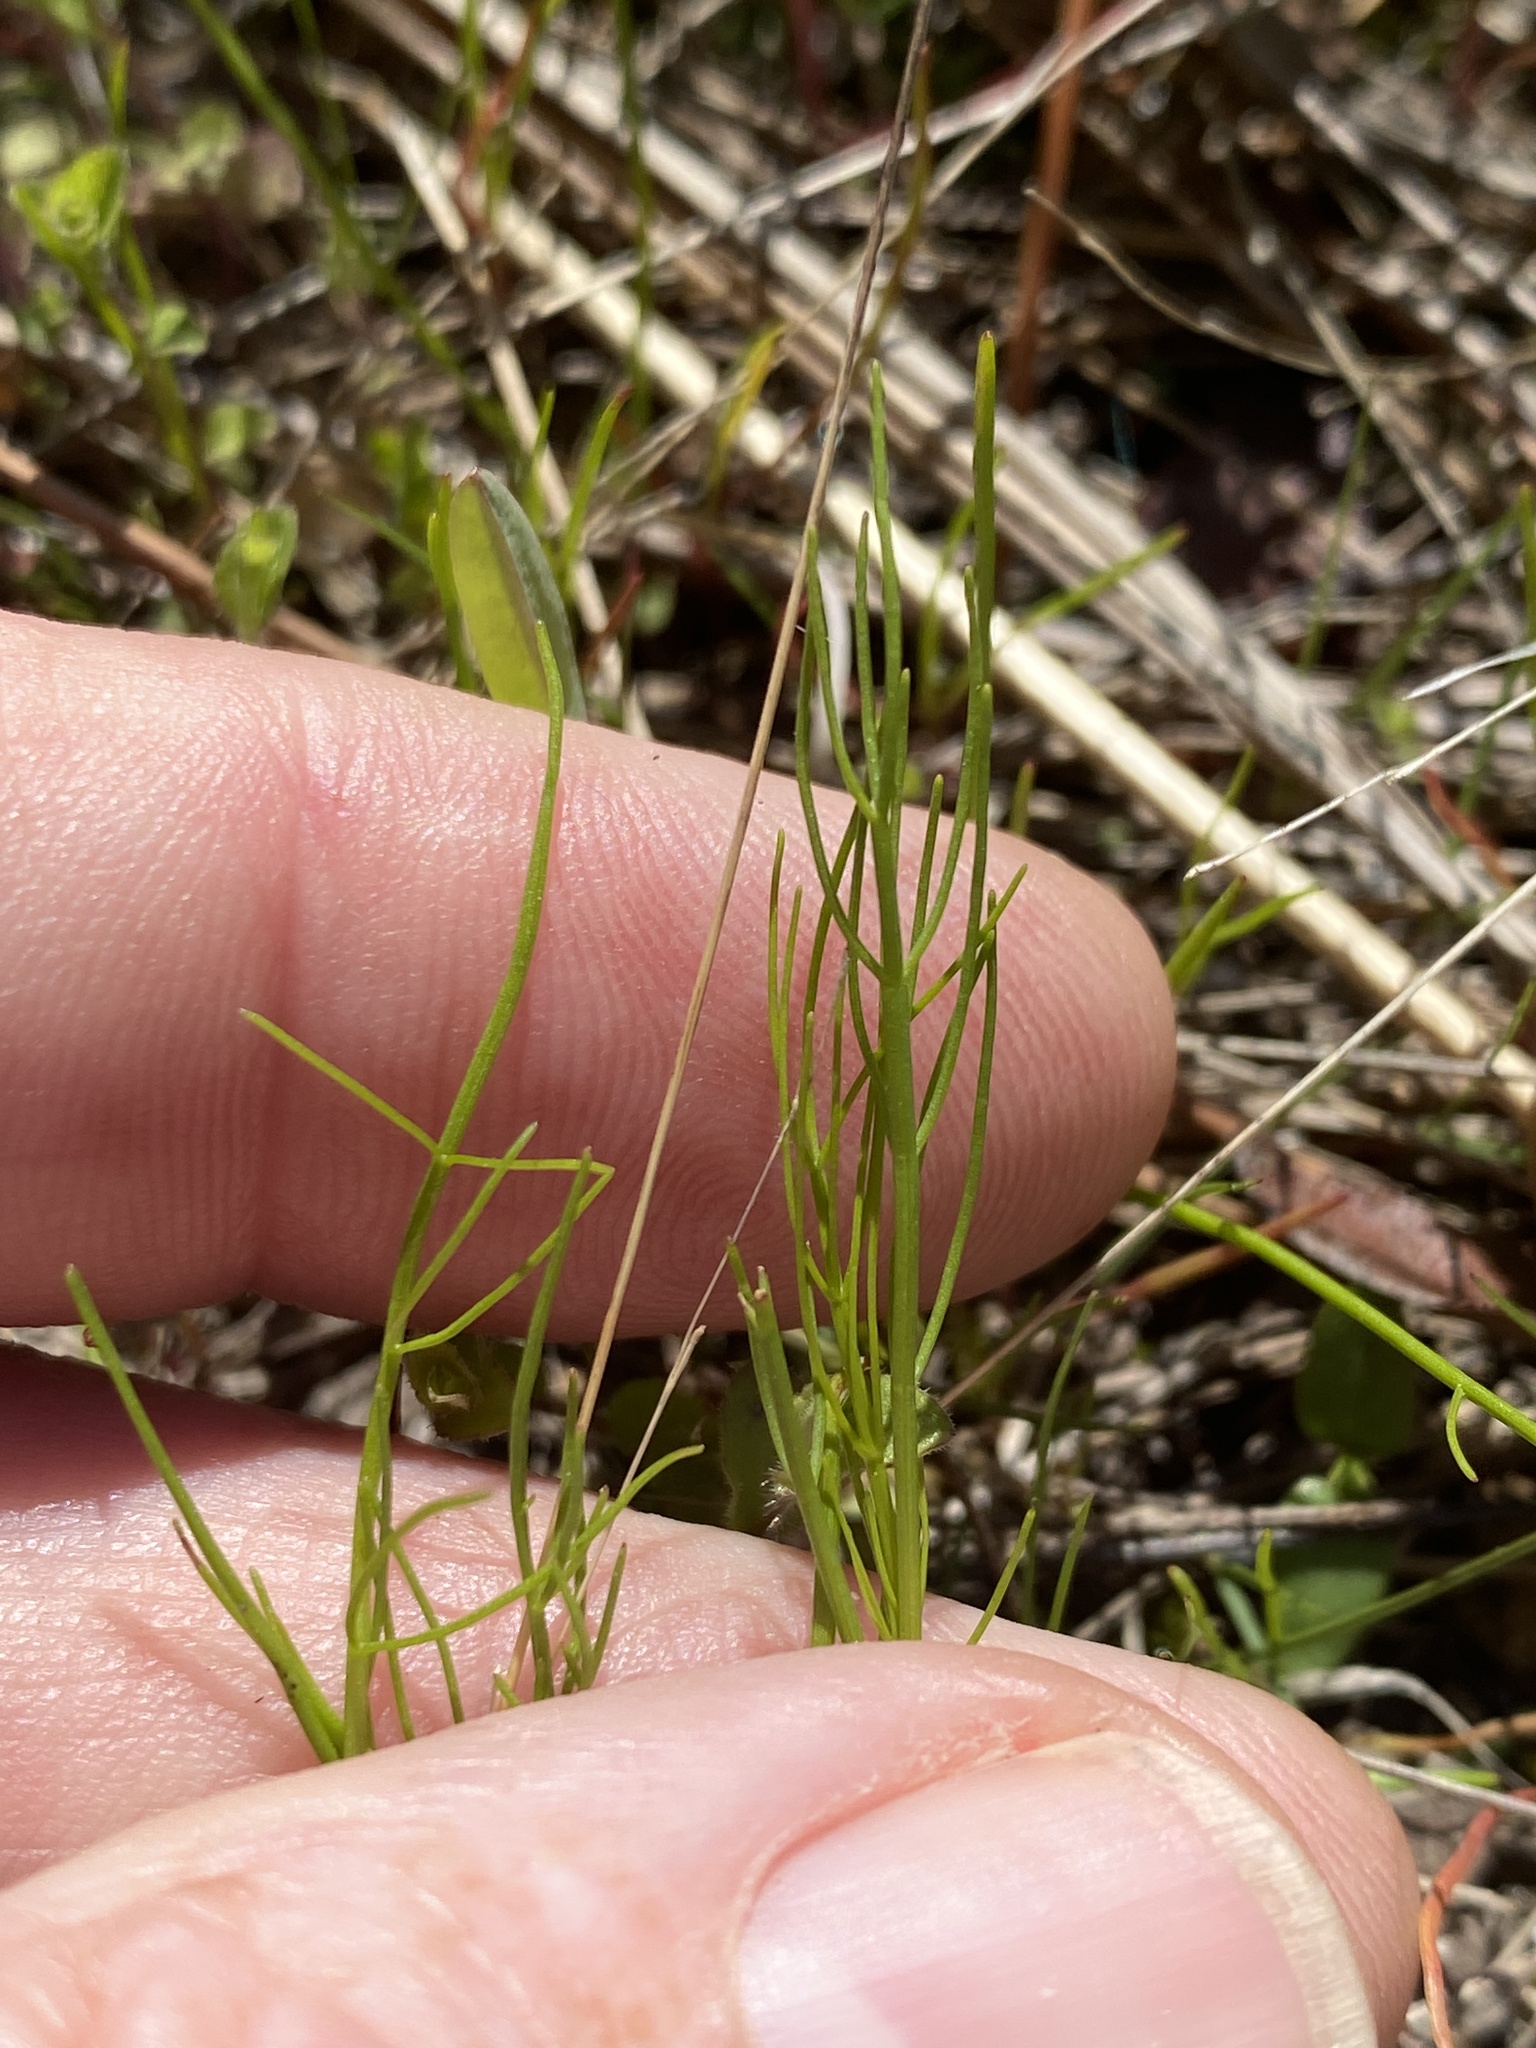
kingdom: Plantae
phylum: Tracheophyta
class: Magnoliopsida
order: Apiales
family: Apiaceae
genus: Ptilimnium
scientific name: Ptilimnium nuttallii
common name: Ozark bishop's-weed
